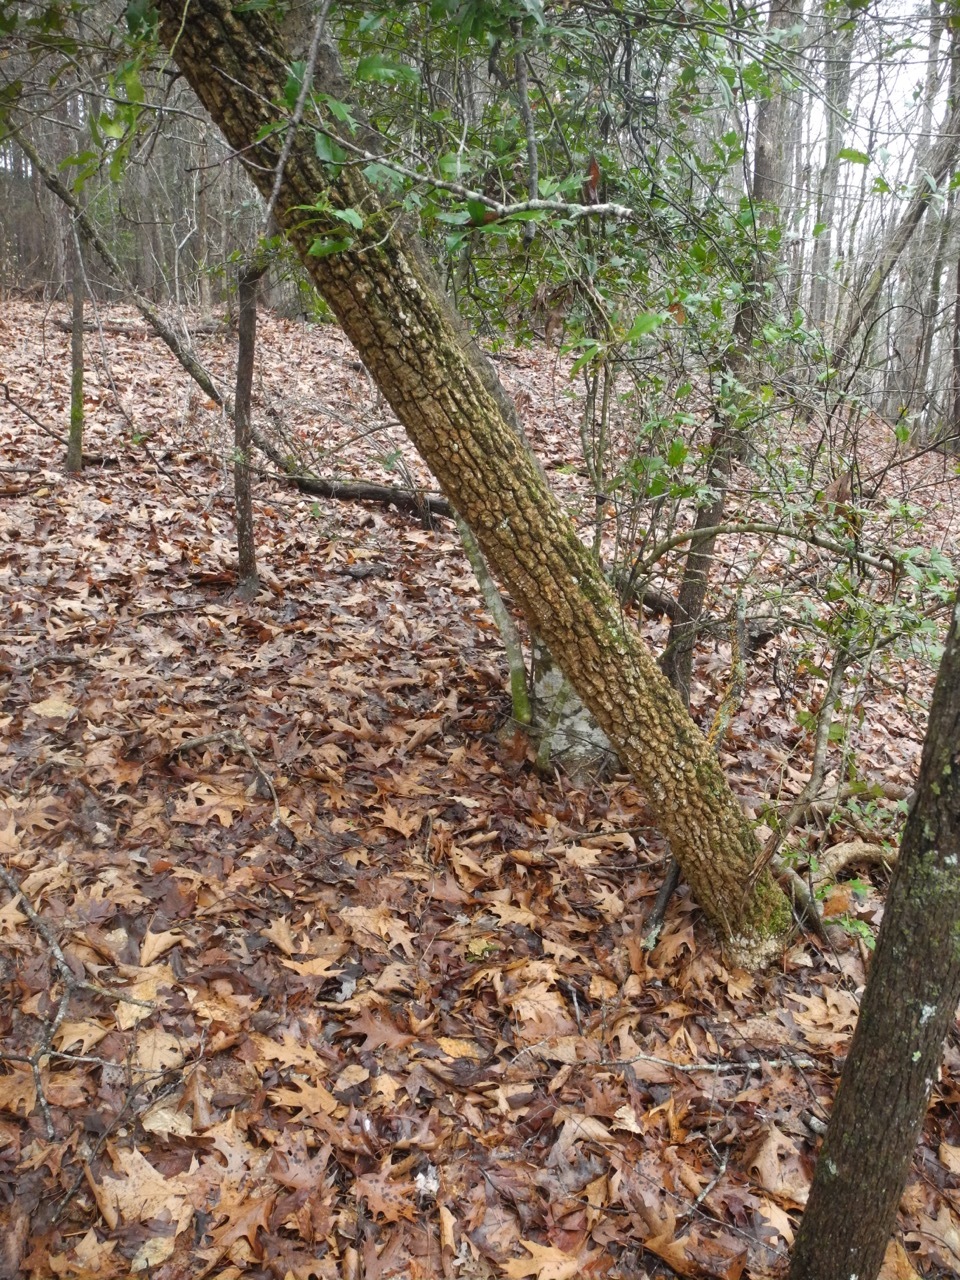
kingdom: Plantae
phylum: Tracheophyta
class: Magnoliopsida
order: Ericales
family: Ericaceae
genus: Oxydendrum
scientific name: Oxydendrum arboreum
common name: Sourwood
